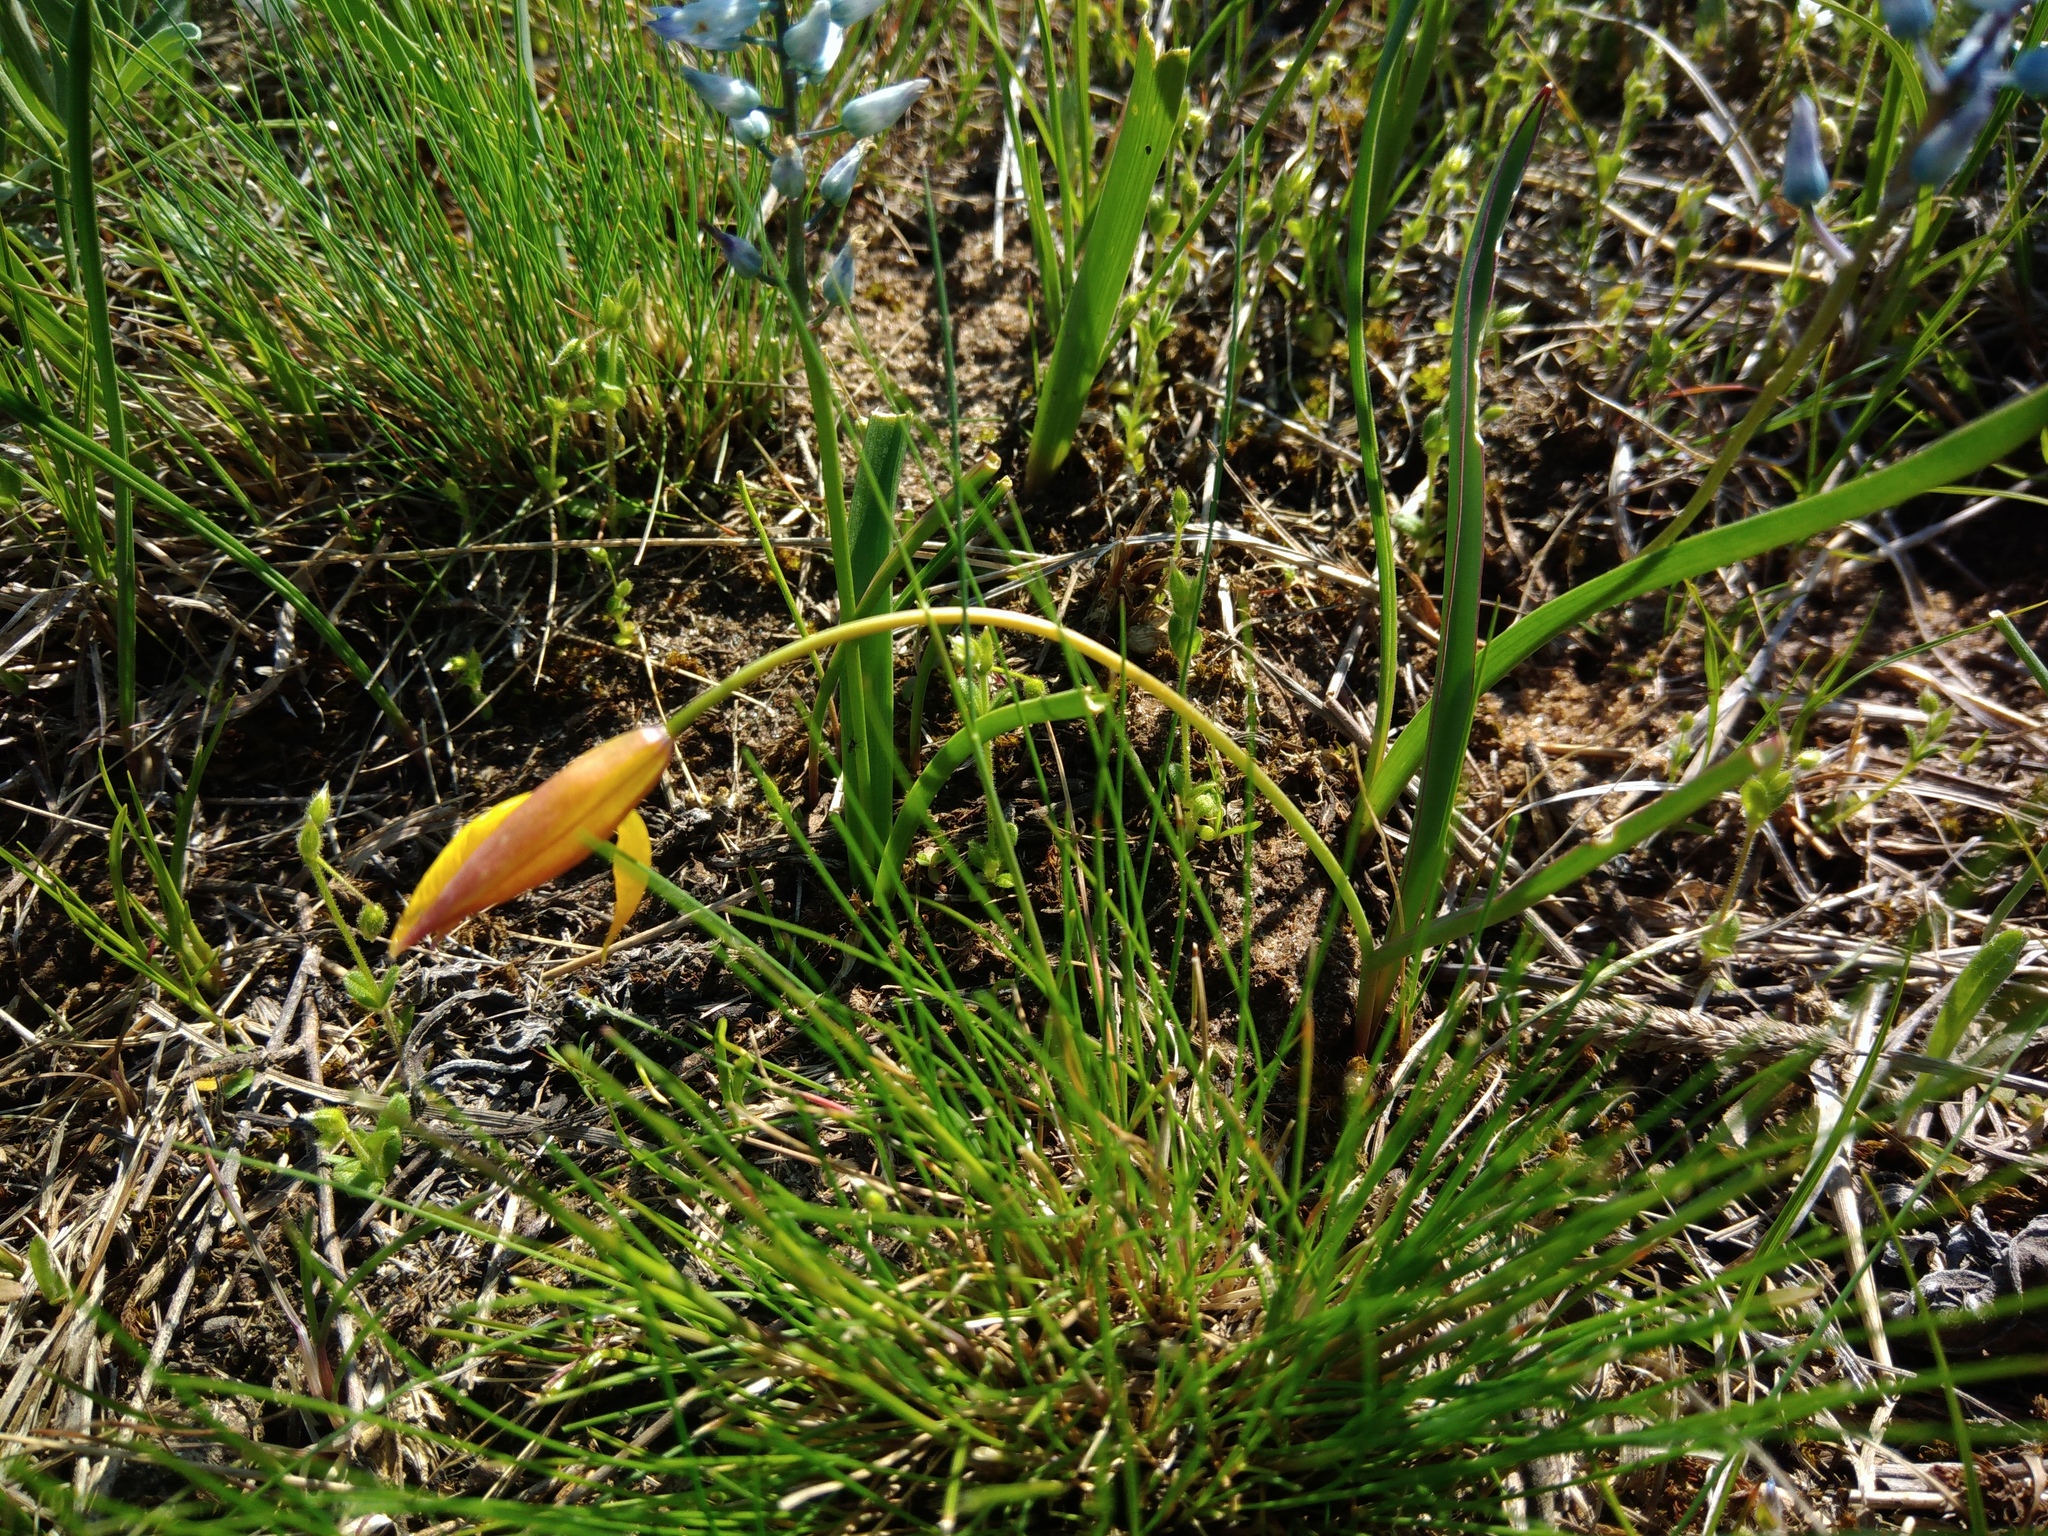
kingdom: Plantae
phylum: Tracheophyta
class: Liliopsida
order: Liliales
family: Liliaceae
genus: Tulipa
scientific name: Tulipa sylvestris
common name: Wild tulip
